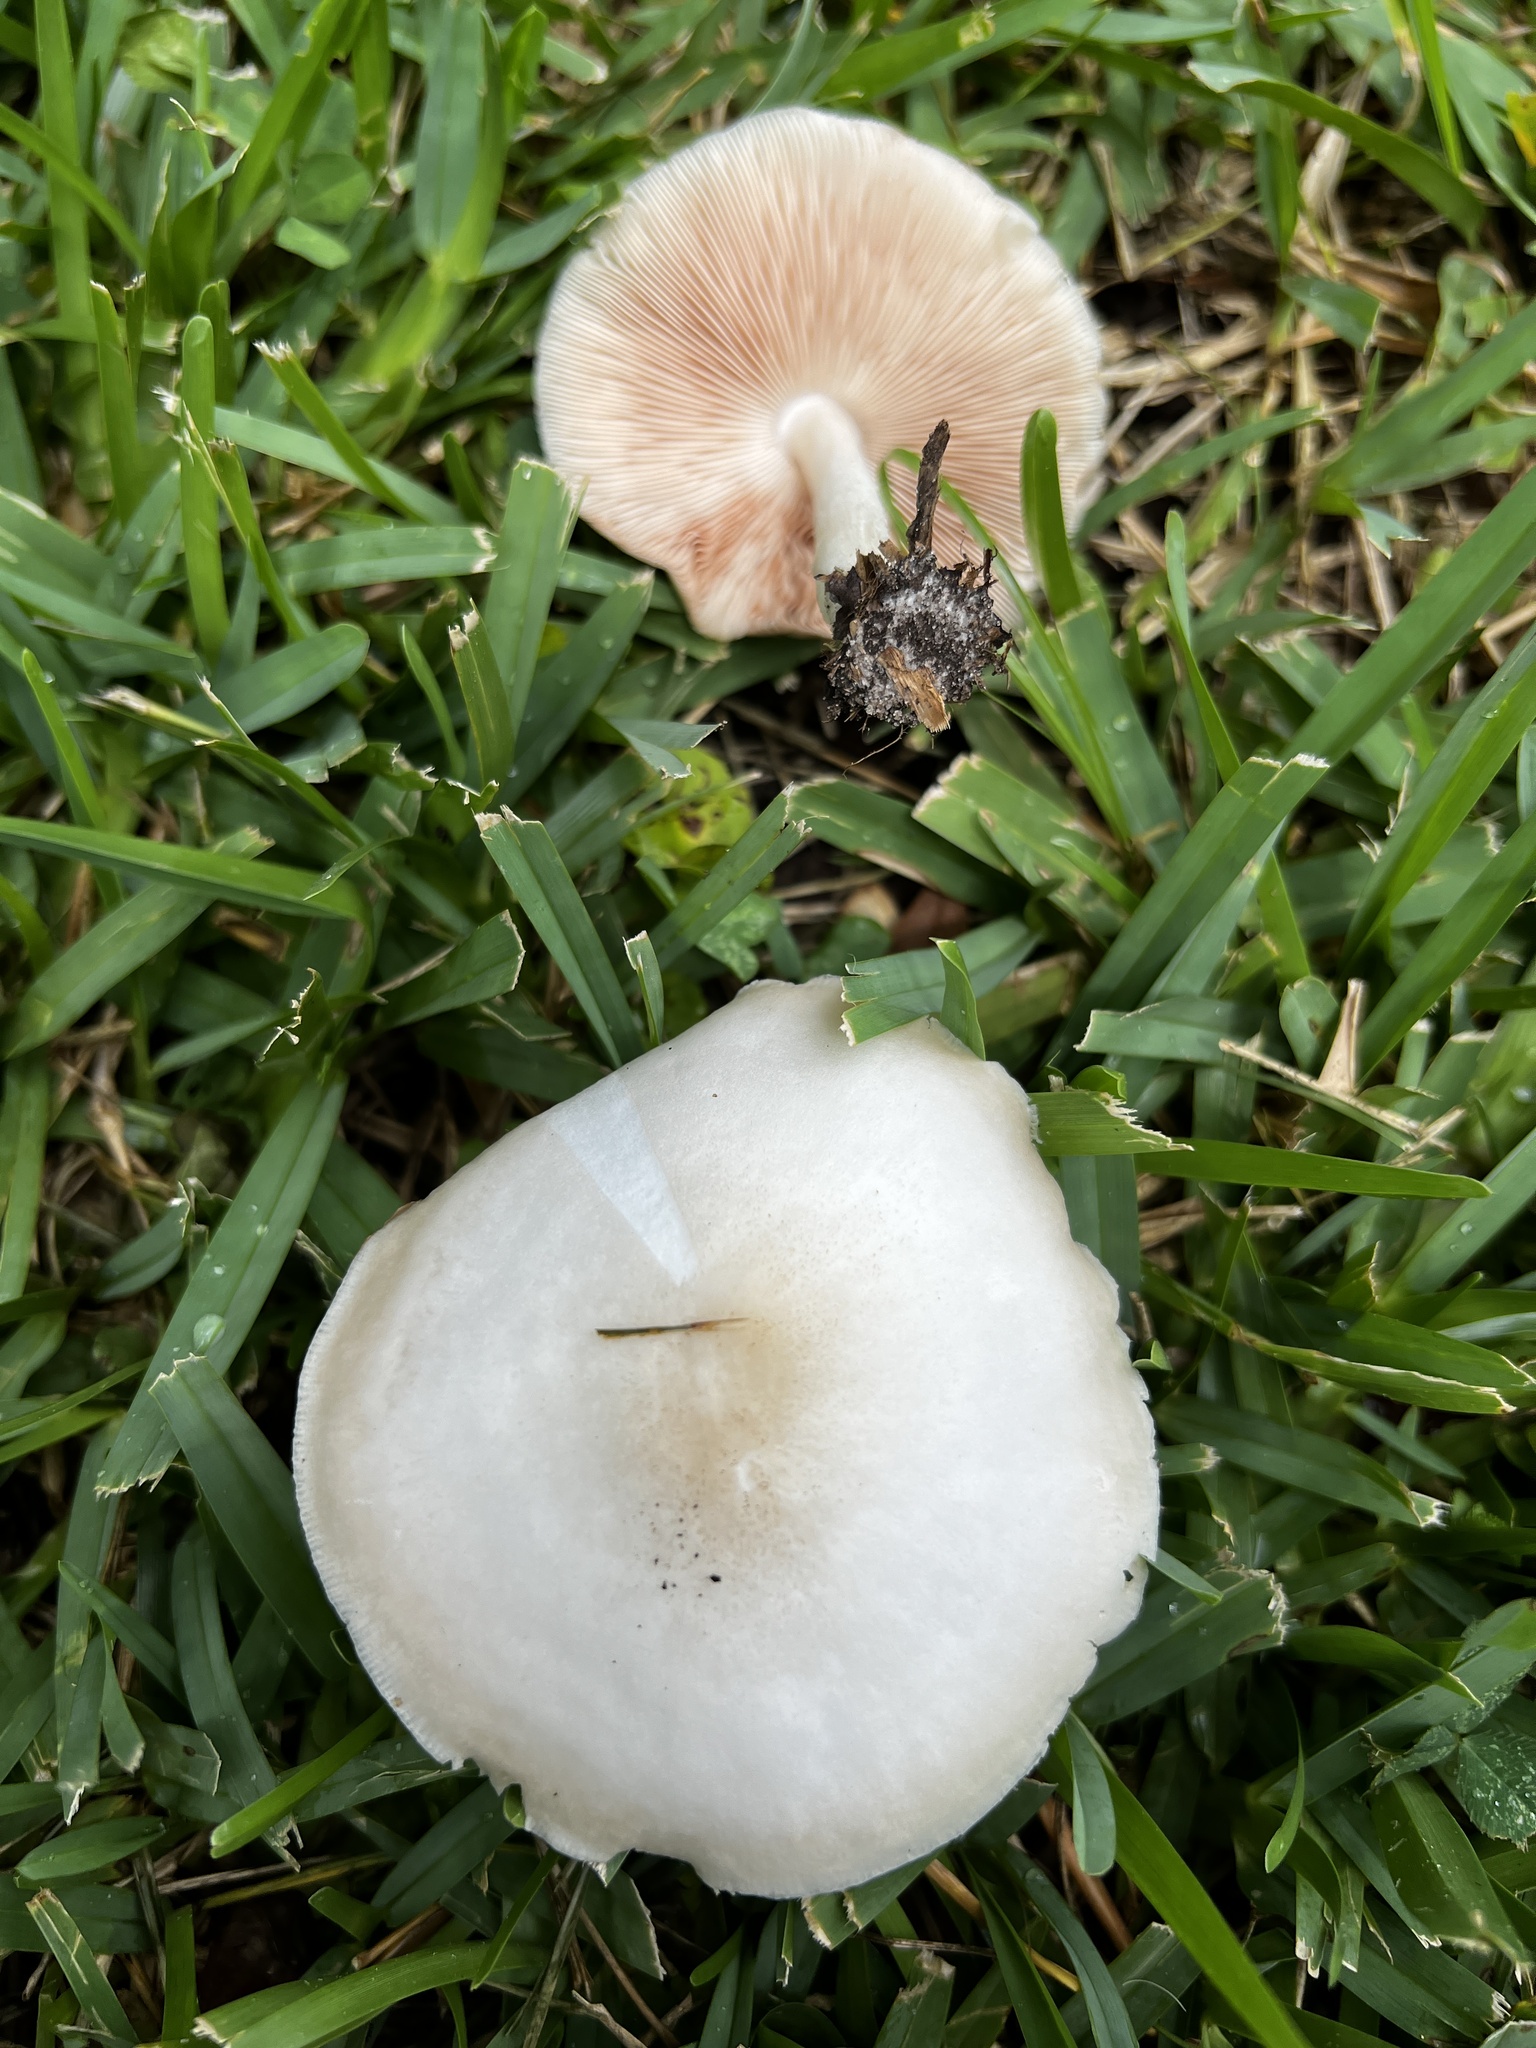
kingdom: Fungi
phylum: Basidiomycota
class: Agaricomycetes
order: Agaricales
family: Pluteaceae
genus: Pluteus
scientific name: Pluteus petasatus
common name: Scaly shield
